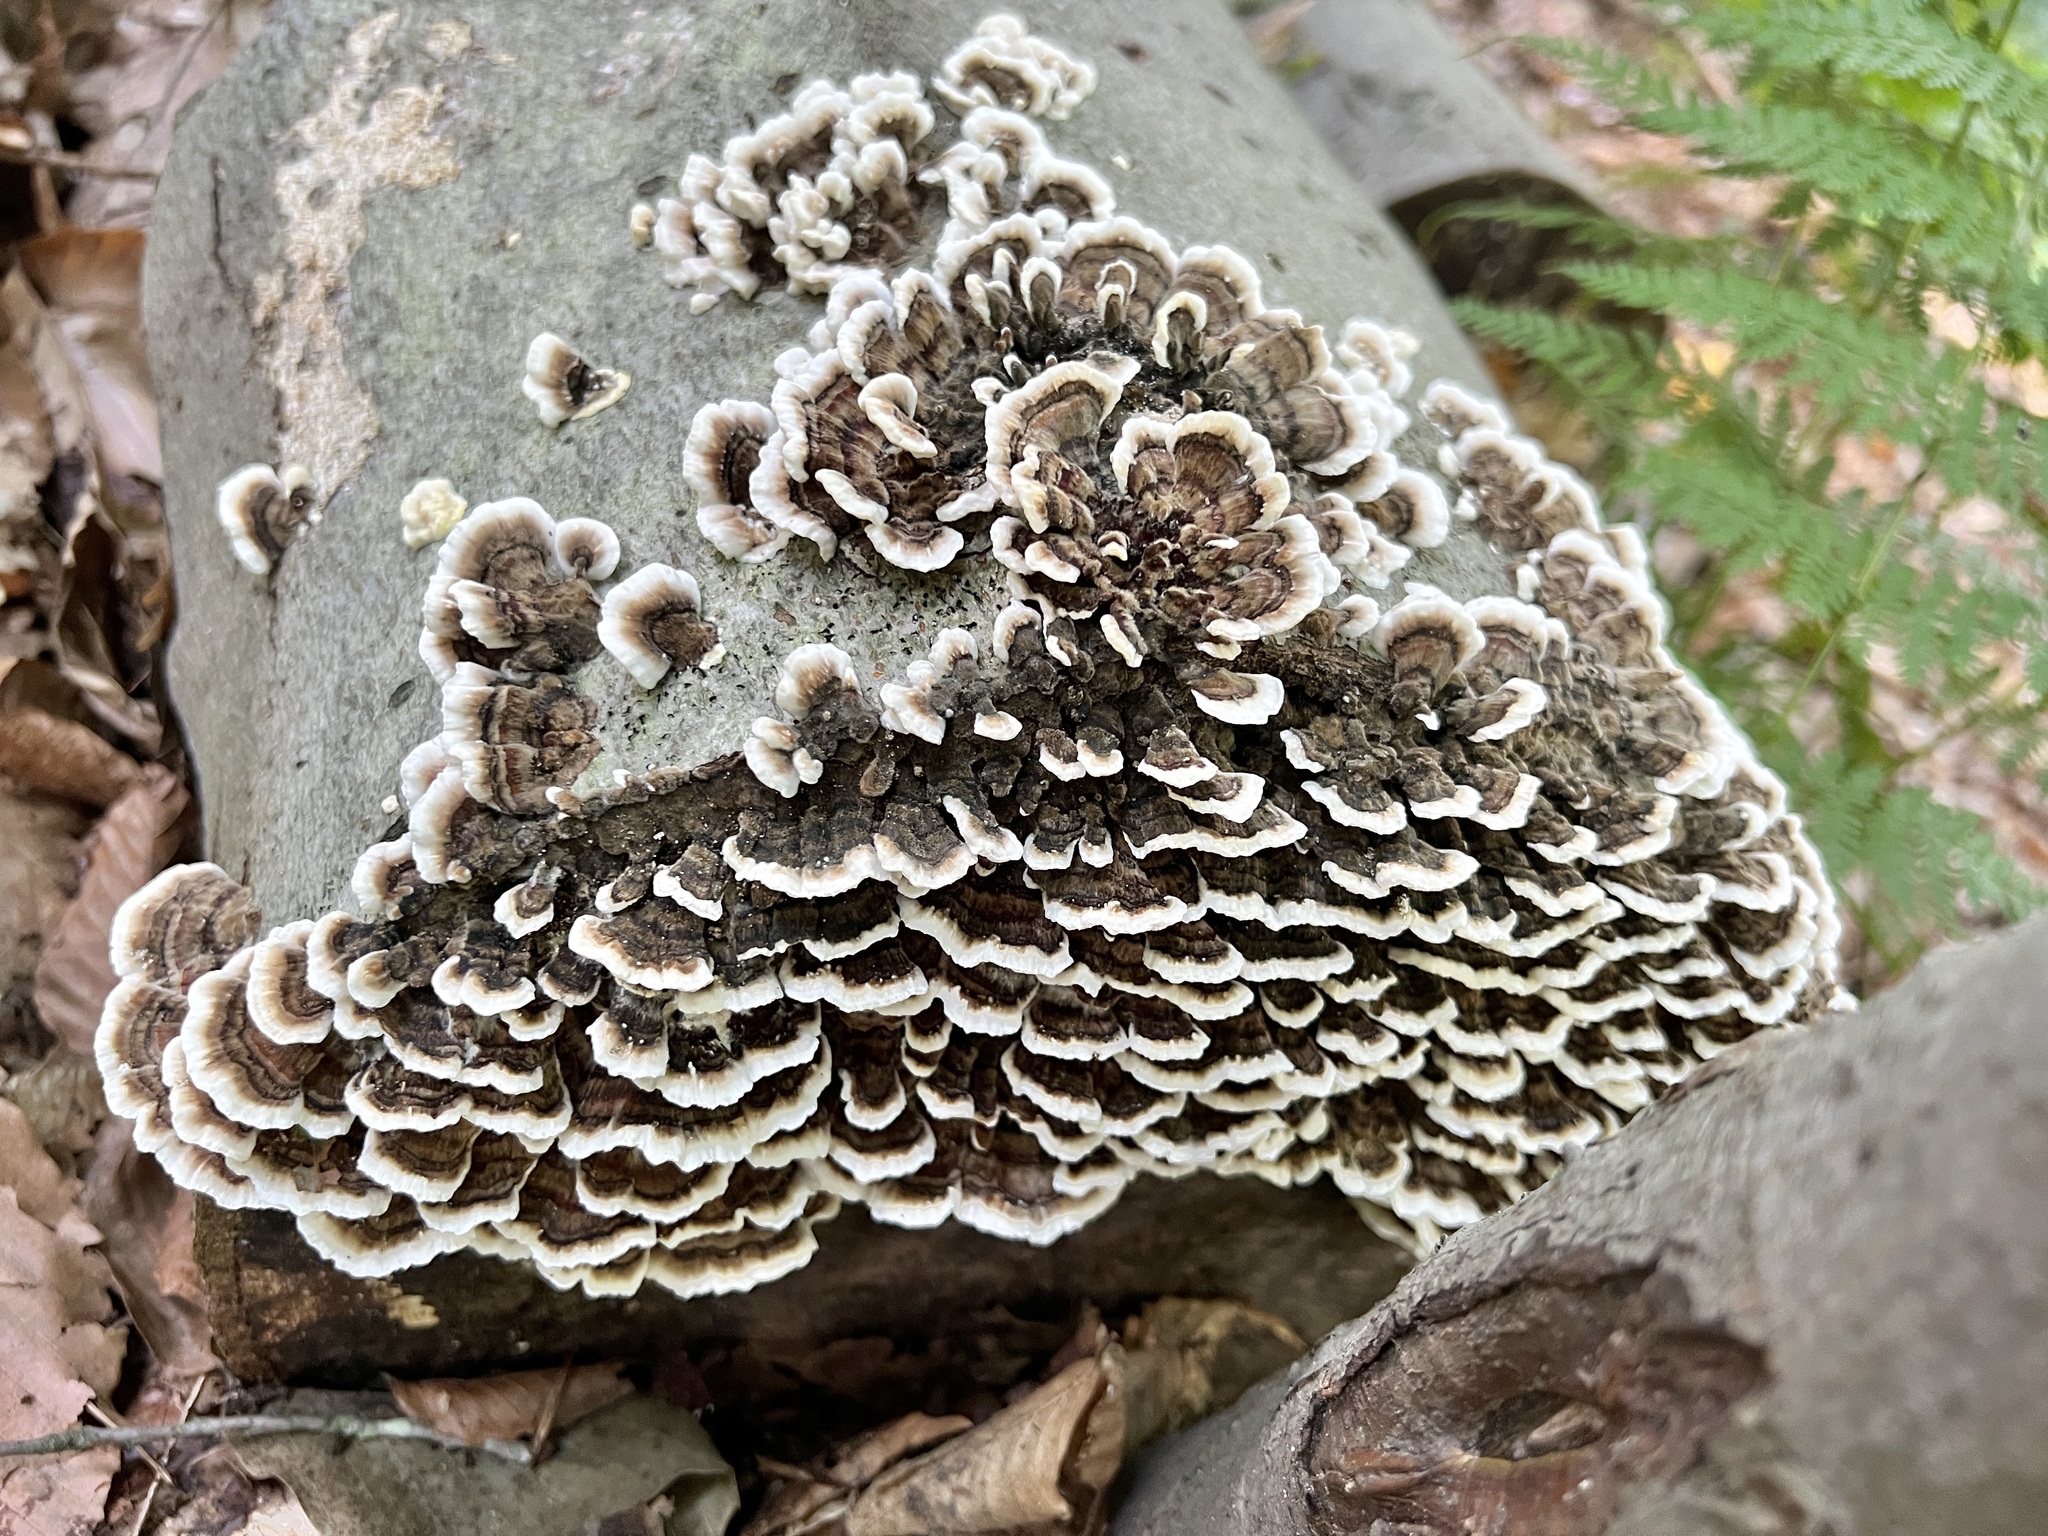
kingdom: Fungi
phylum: Basidiomycota
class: Agaricomycetes
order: Polyporales
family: Polyporaceae
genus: Trametes
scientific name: Trametes versicolor
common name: Turkeytail
